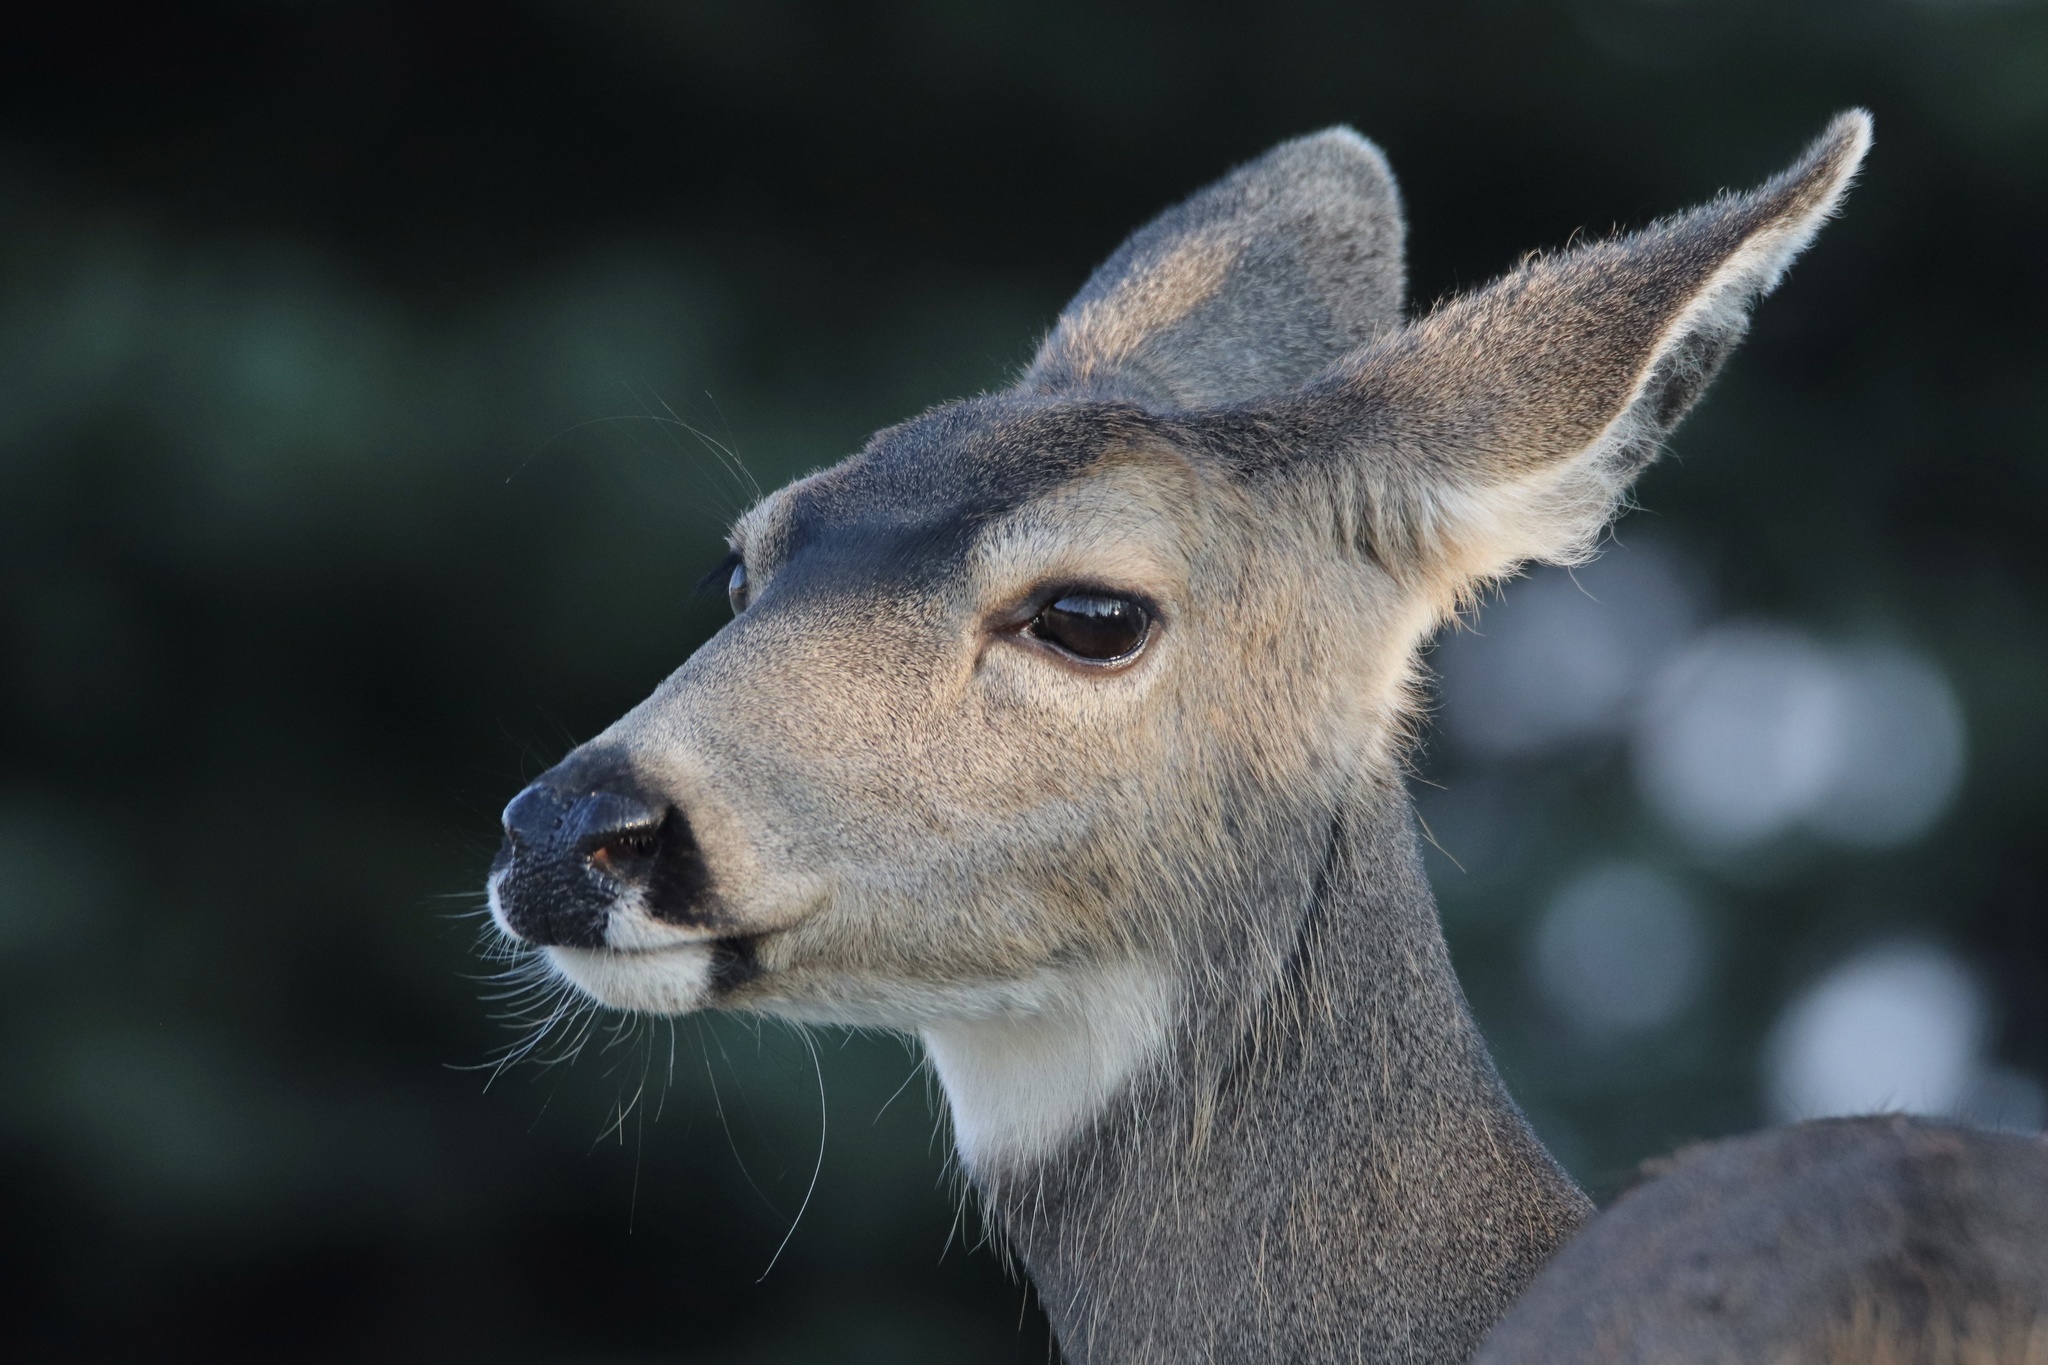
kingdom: Animalia
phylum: Chordata
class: Mammalia
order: Artiodactyla
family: Cervidae
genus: Odocoileus
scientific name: Odocoileus hemionus
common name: Mule deer
